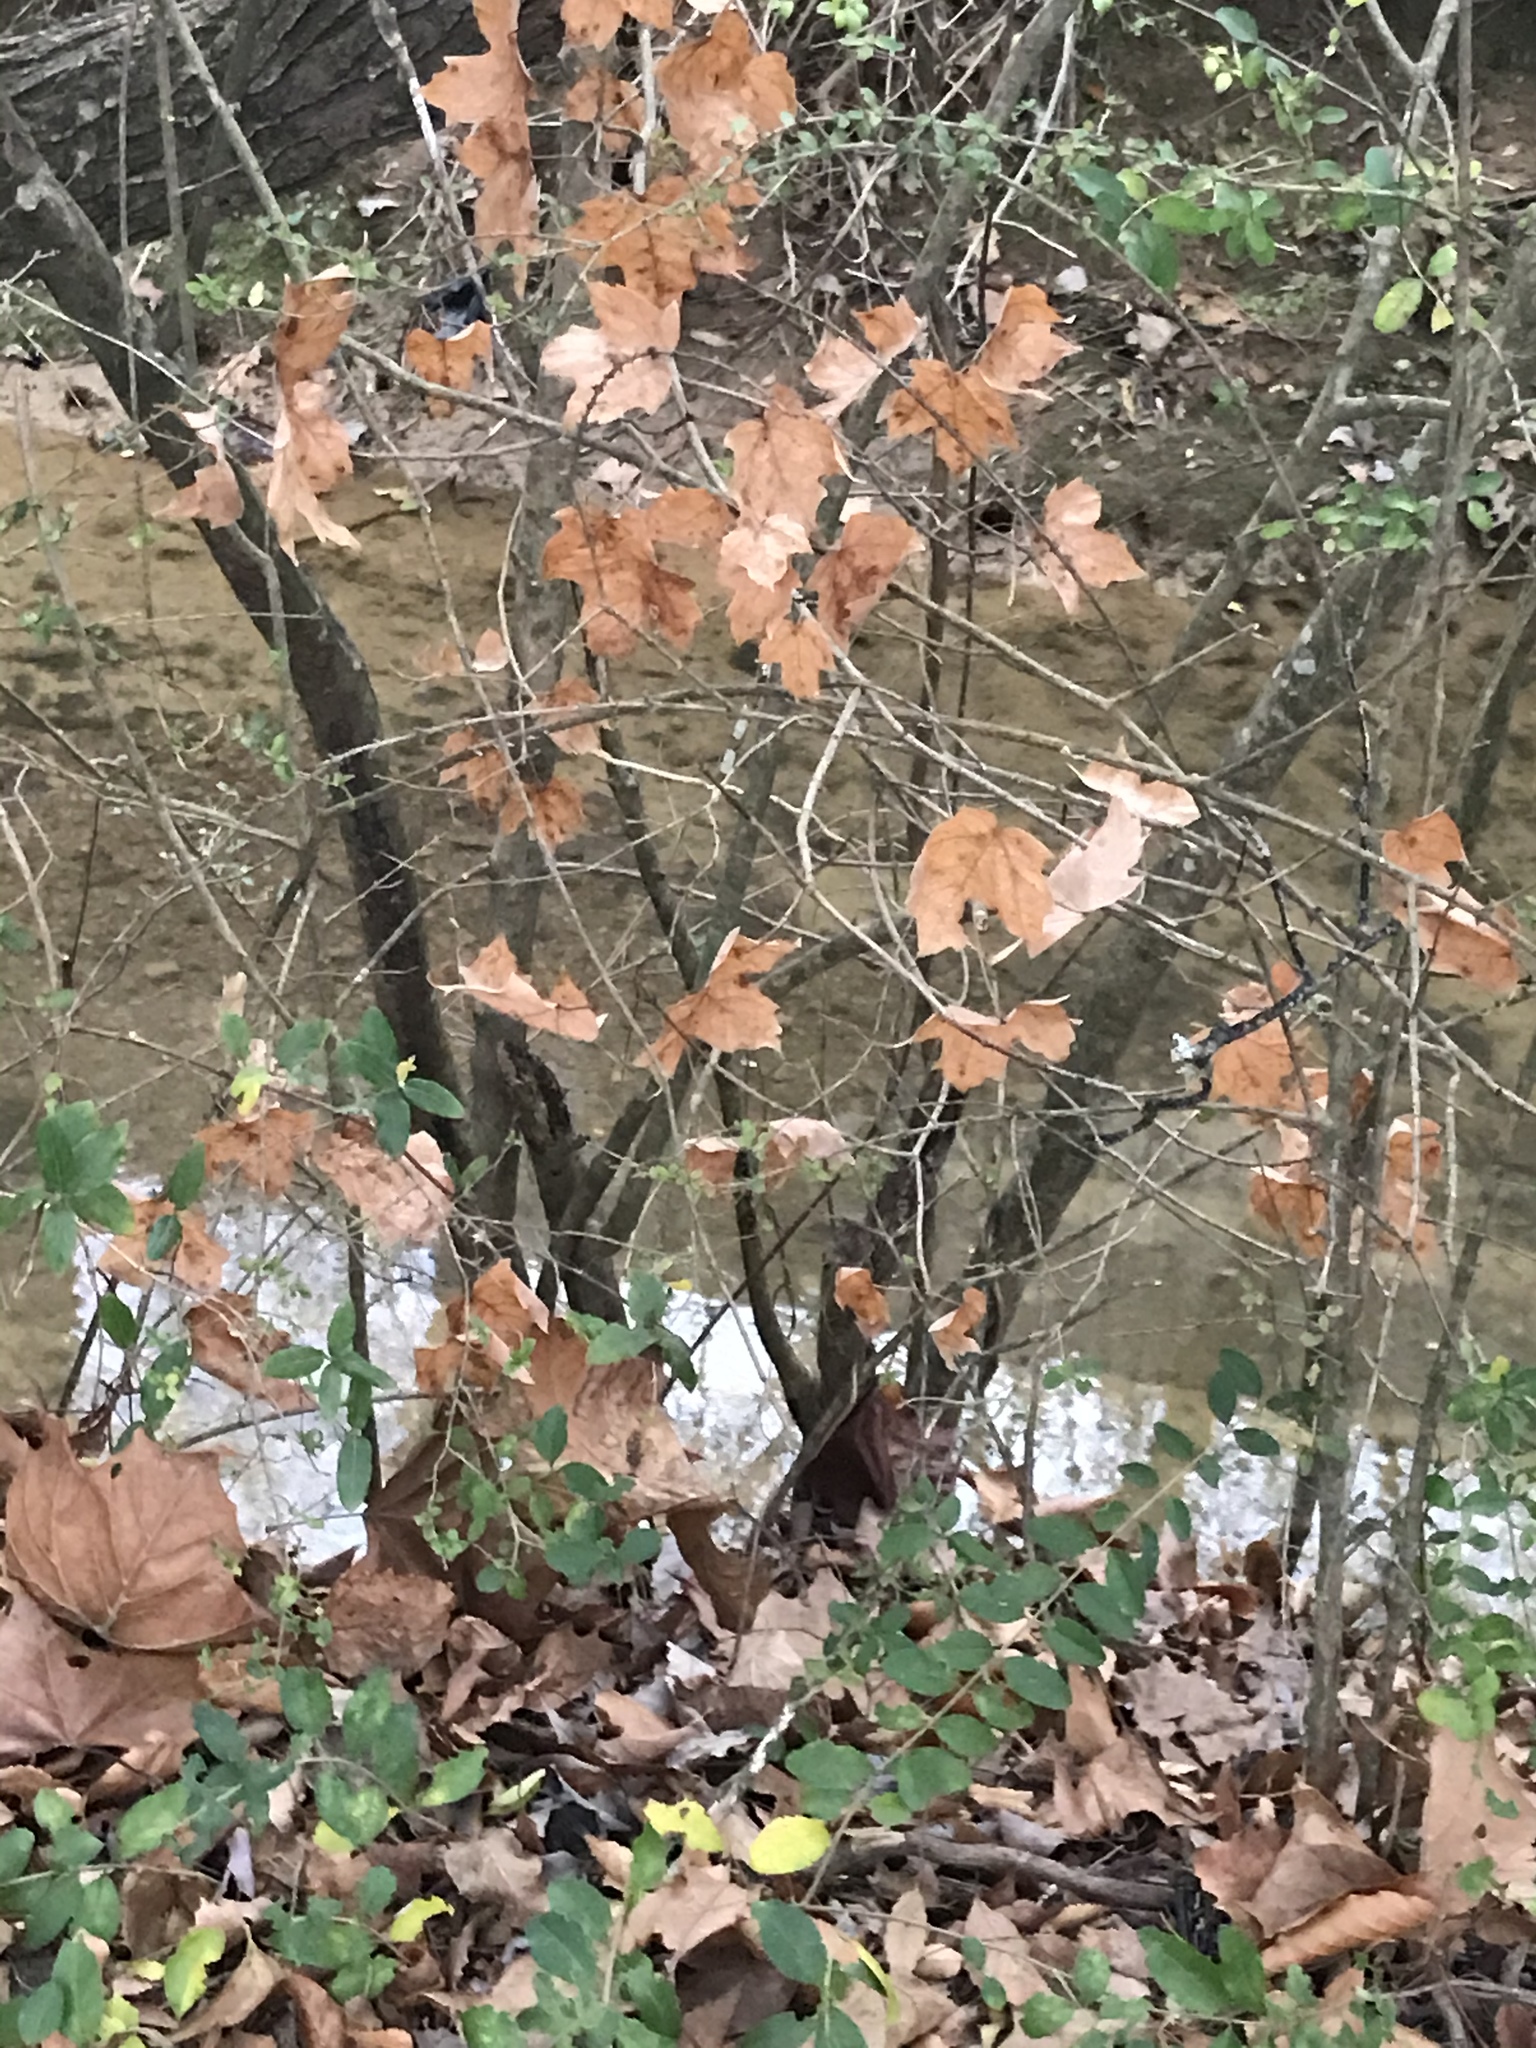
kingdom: Plantae
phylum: Tracheophyta
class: Magnoliopsida
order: Sapindales
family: Sapindaceae
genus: Acer
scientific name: Acer floridanum
